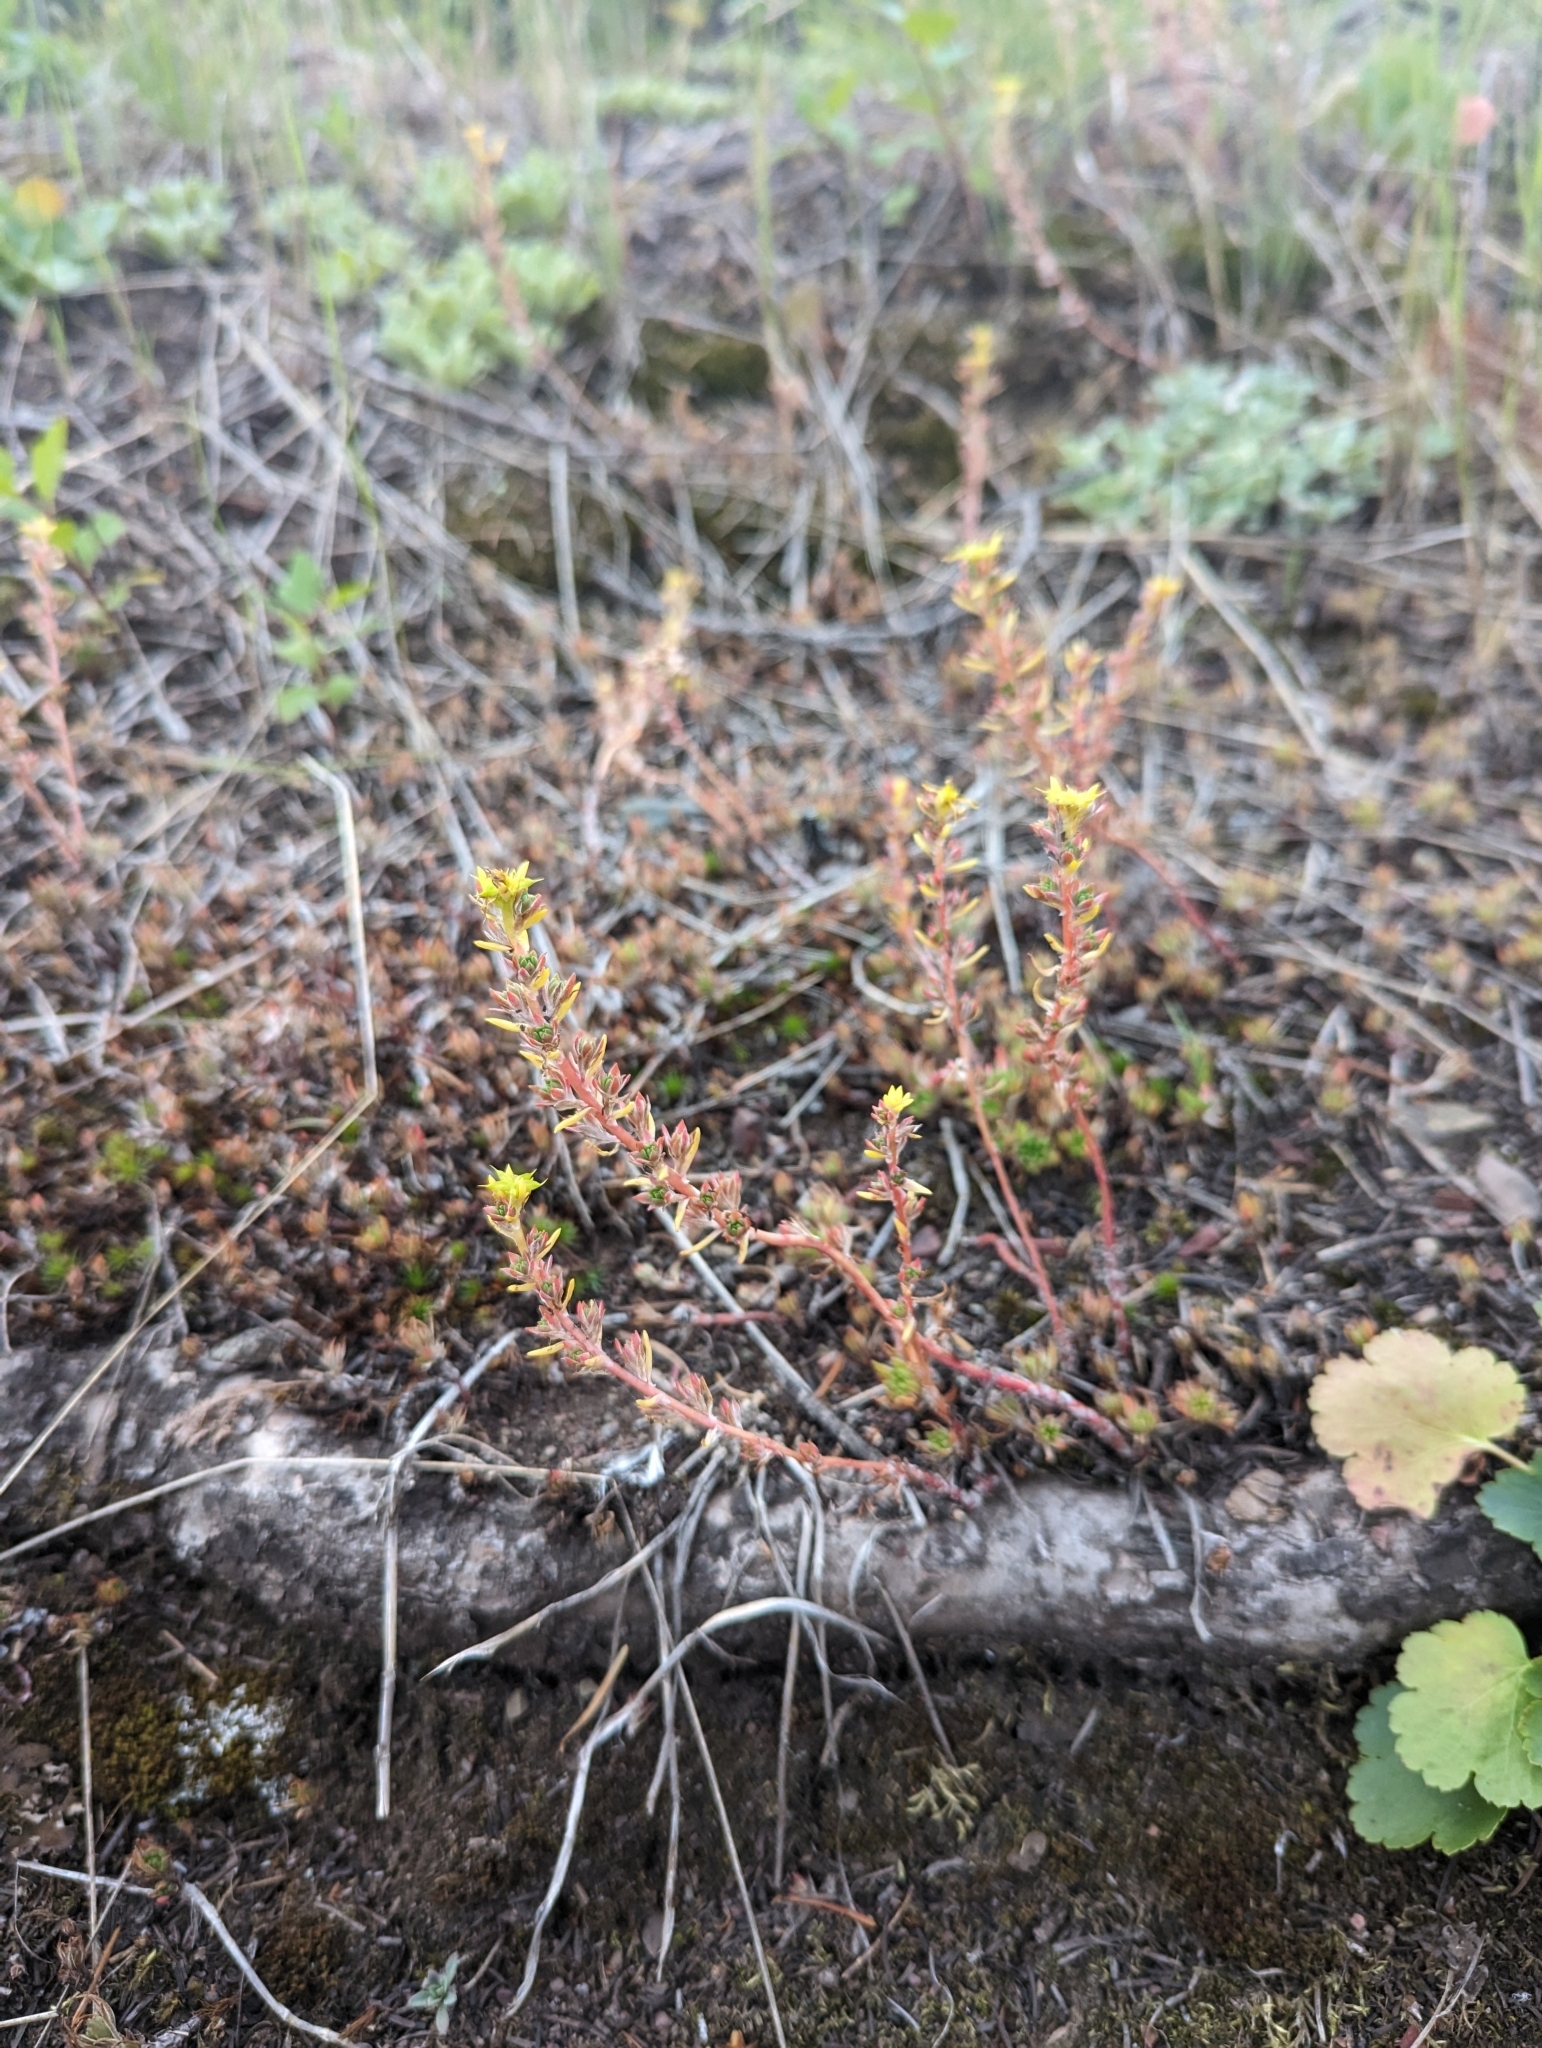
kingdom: Plantae
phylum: Tracheophyta
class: Magnoliopsida
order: Saxifragales
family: Crassulaceae
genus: Sedum
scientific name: Sedum stenopetalum
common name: Narrow-petaled stonecrop
